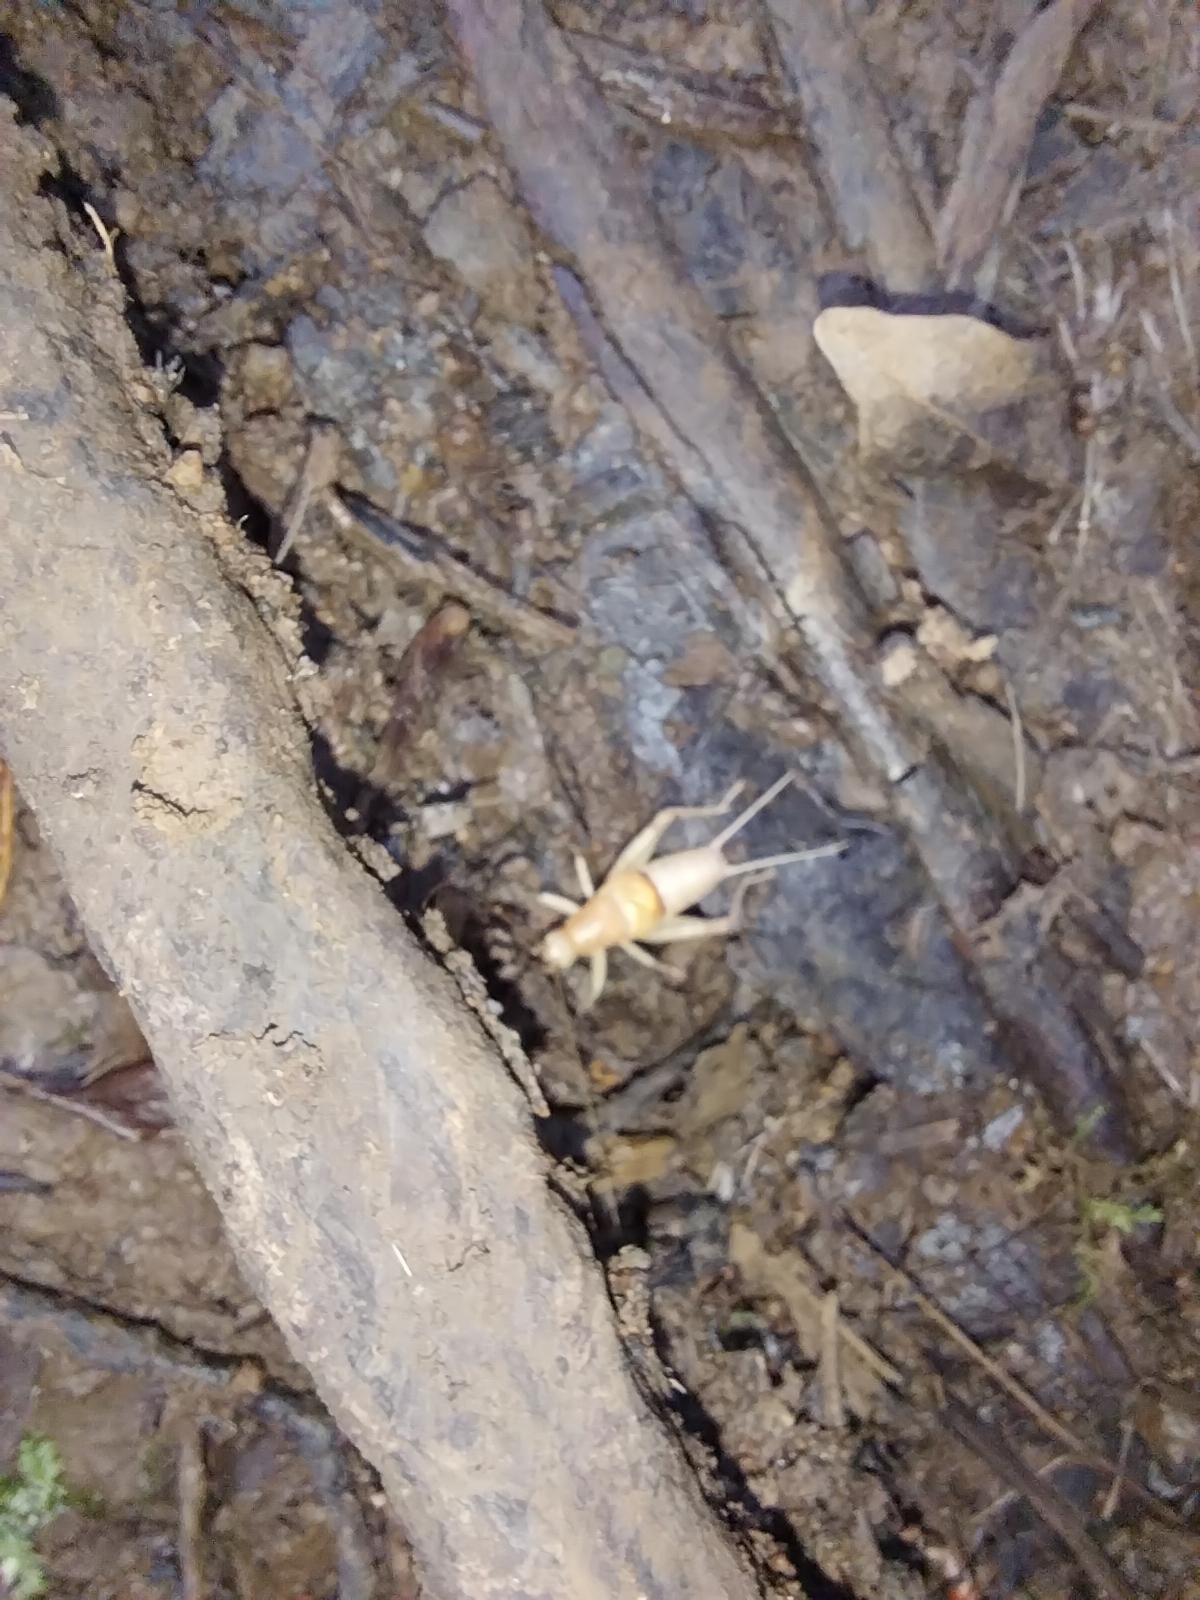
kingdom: Animalia
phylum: Arthropoda
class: Insecta
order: Orthoptera
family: Mogoplistidae
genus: Ornebius
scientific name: Ornebius novarae
